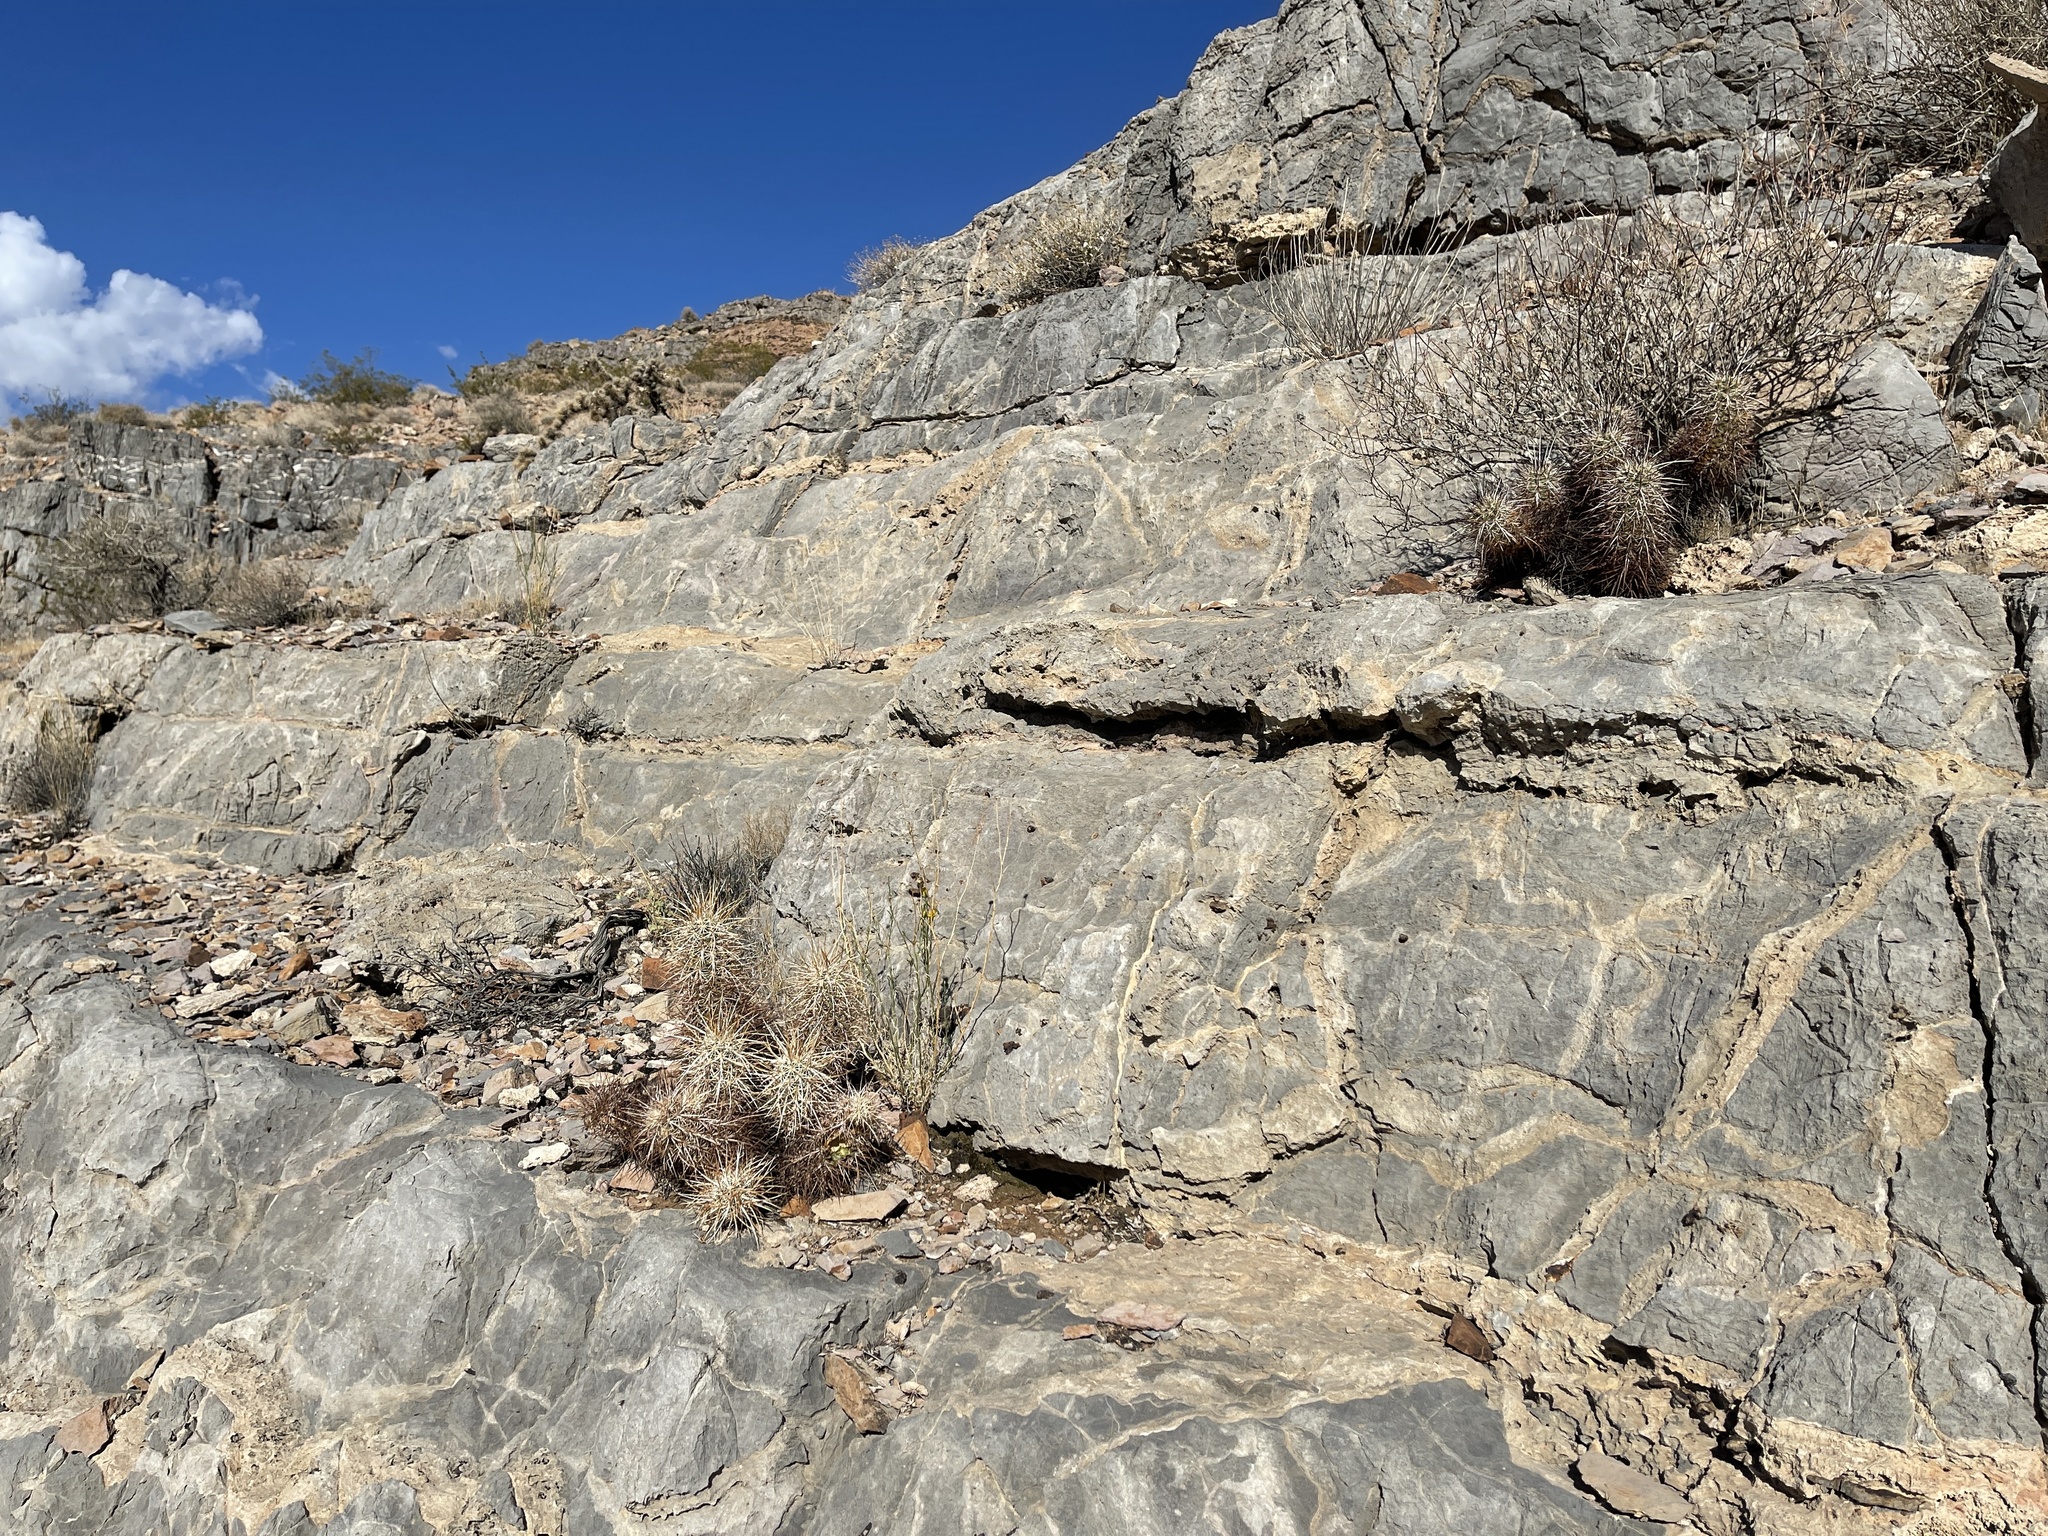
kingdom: Plantae
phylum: Tracheophyta
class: Magnoliopsida
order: Caryophyllales
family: Cactaceae
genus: Echinocereus
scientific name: Echinocereus engelmannii
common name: Engelmann's hedgehog cactus
